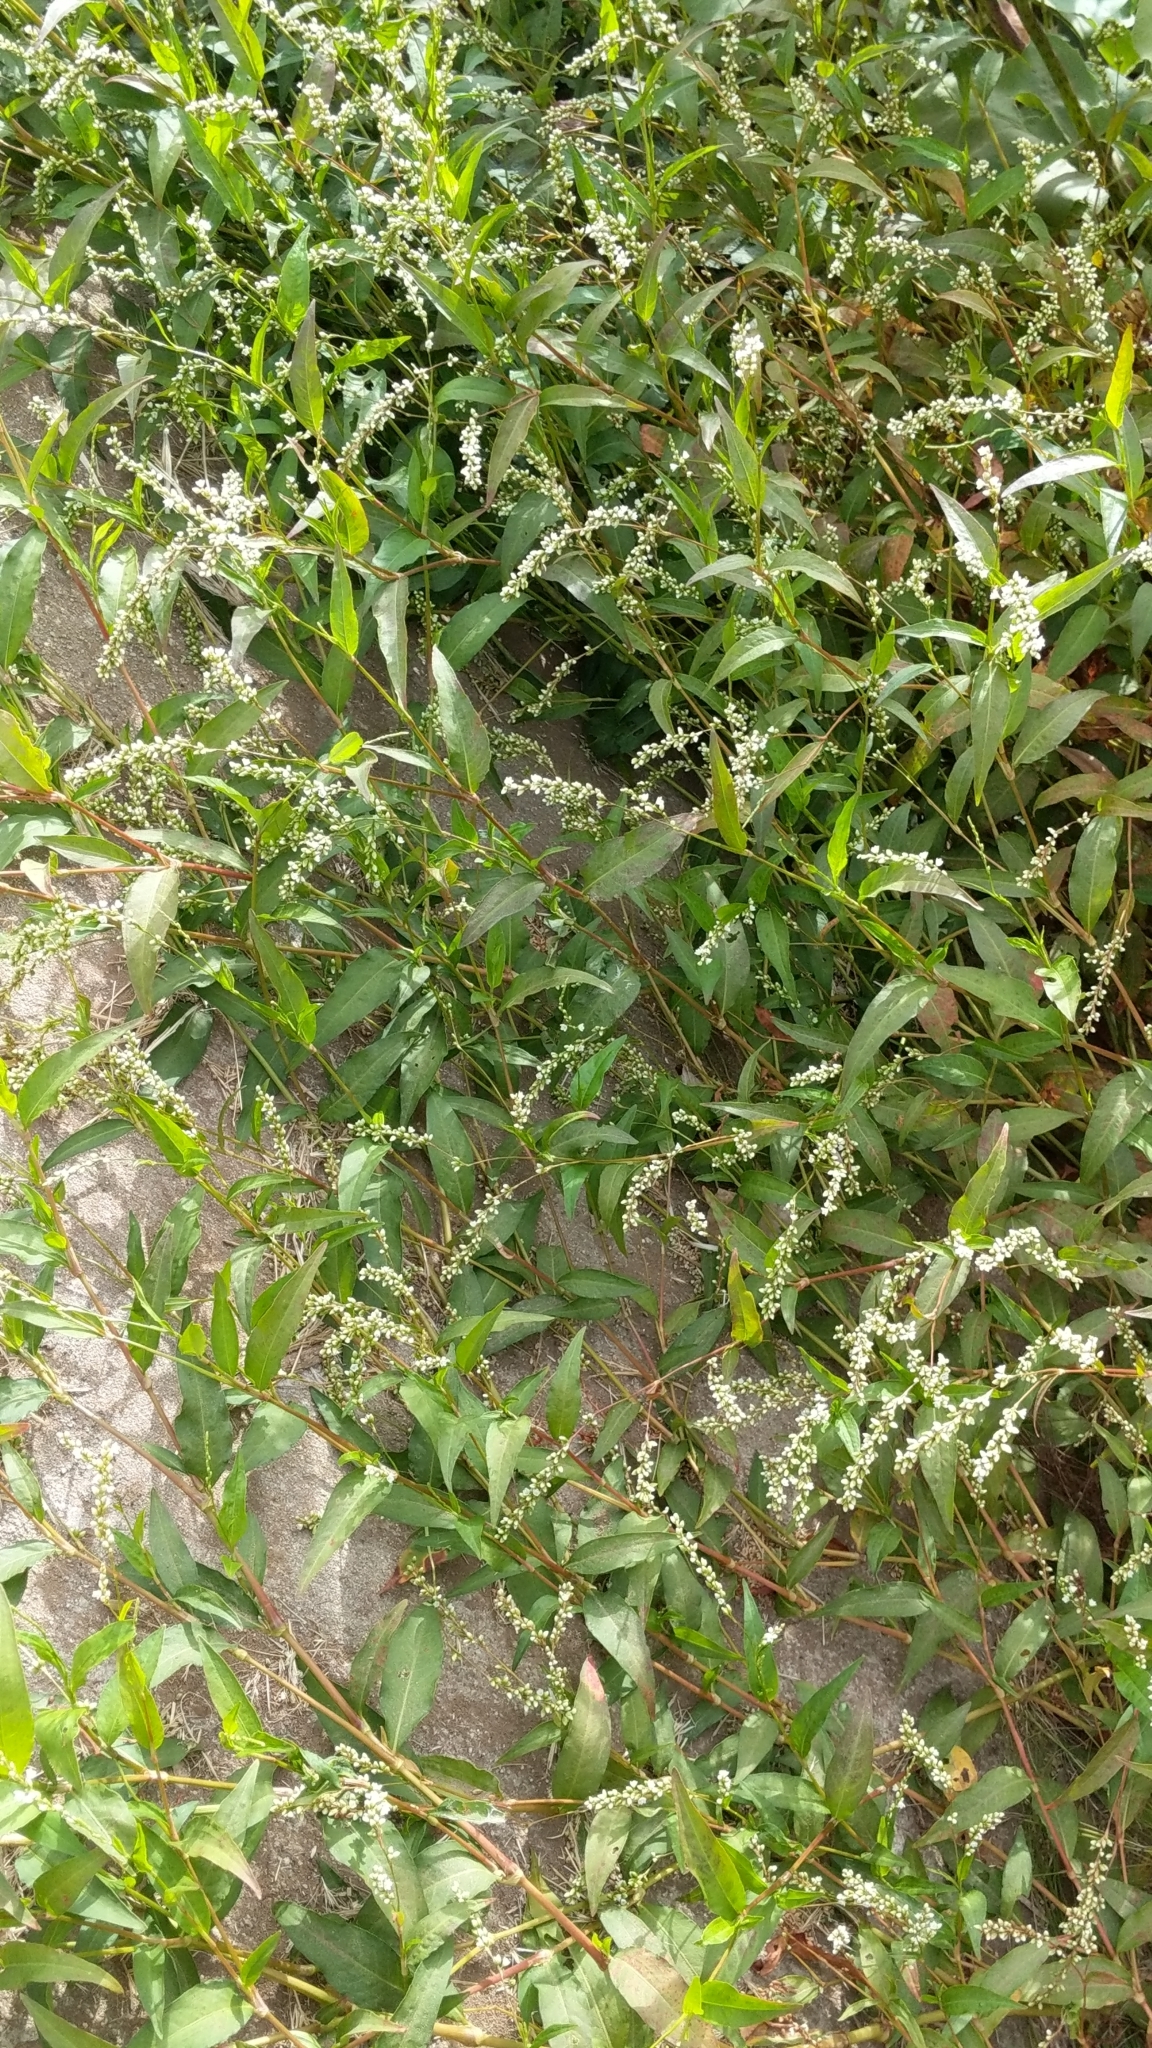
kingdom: Plantae
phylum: Tracheophyta
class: Magnoliopsida
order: Caryophyllales
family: Polygonaceae
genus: Persicaria
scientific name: Persicaria robustior
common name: Stout smartweed
